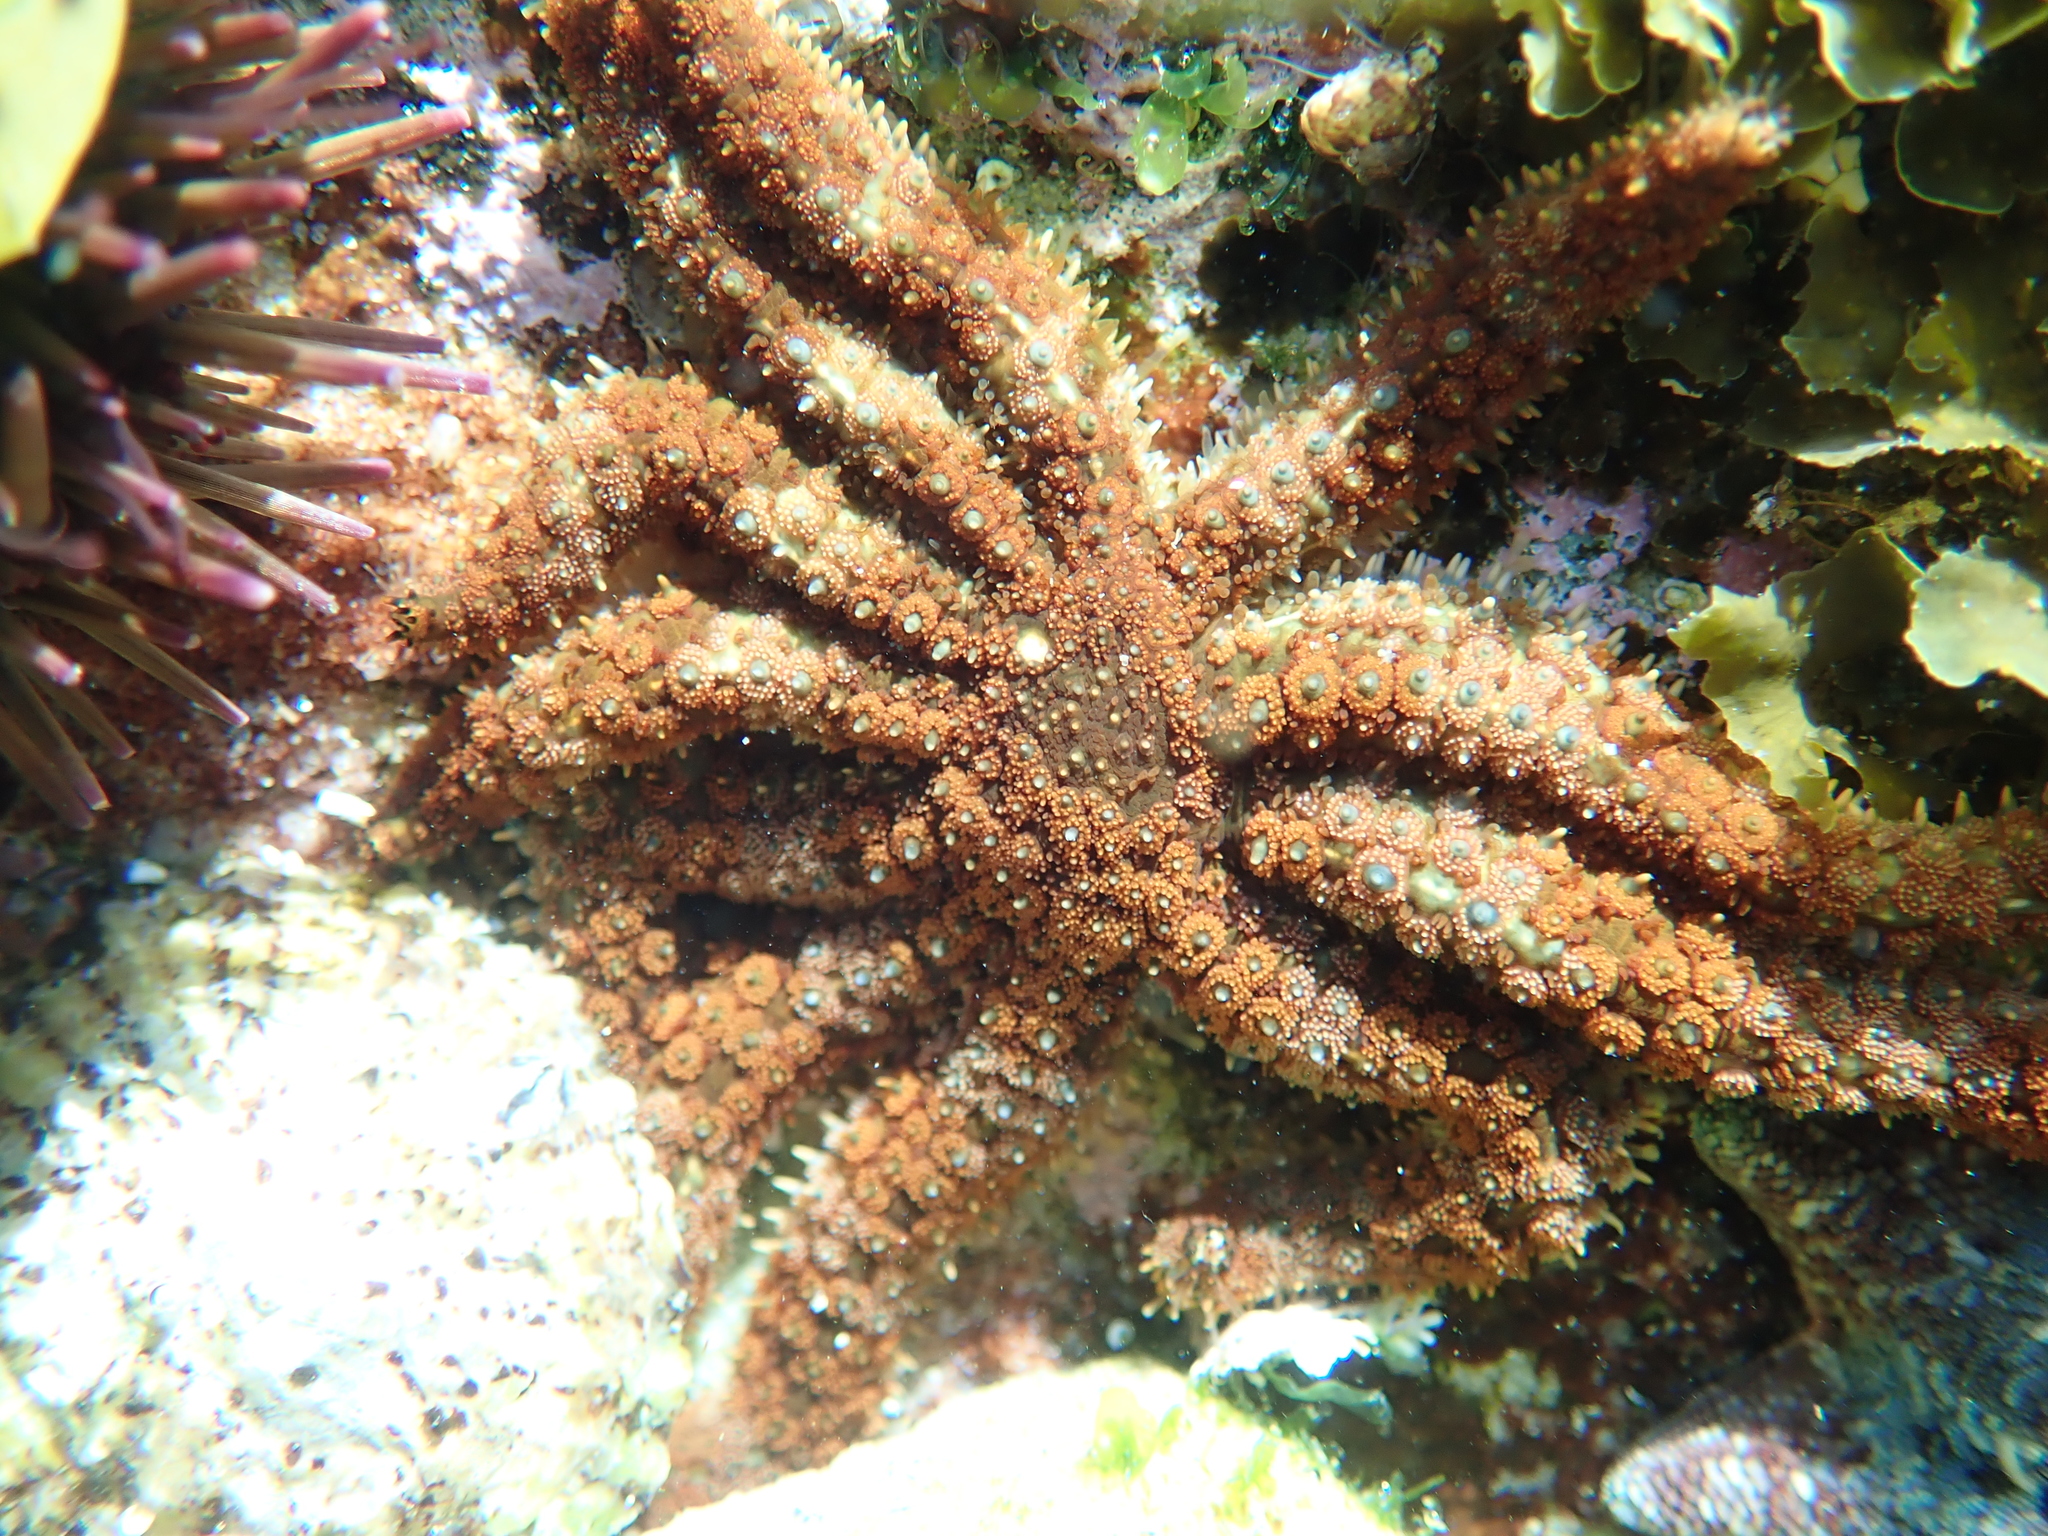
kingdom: Animalia
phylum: Echinodermata
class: Asteroidea
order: Forcipulatida
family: Asteriidae
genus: Coscinasterias
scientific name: Coscinasterias muricata
